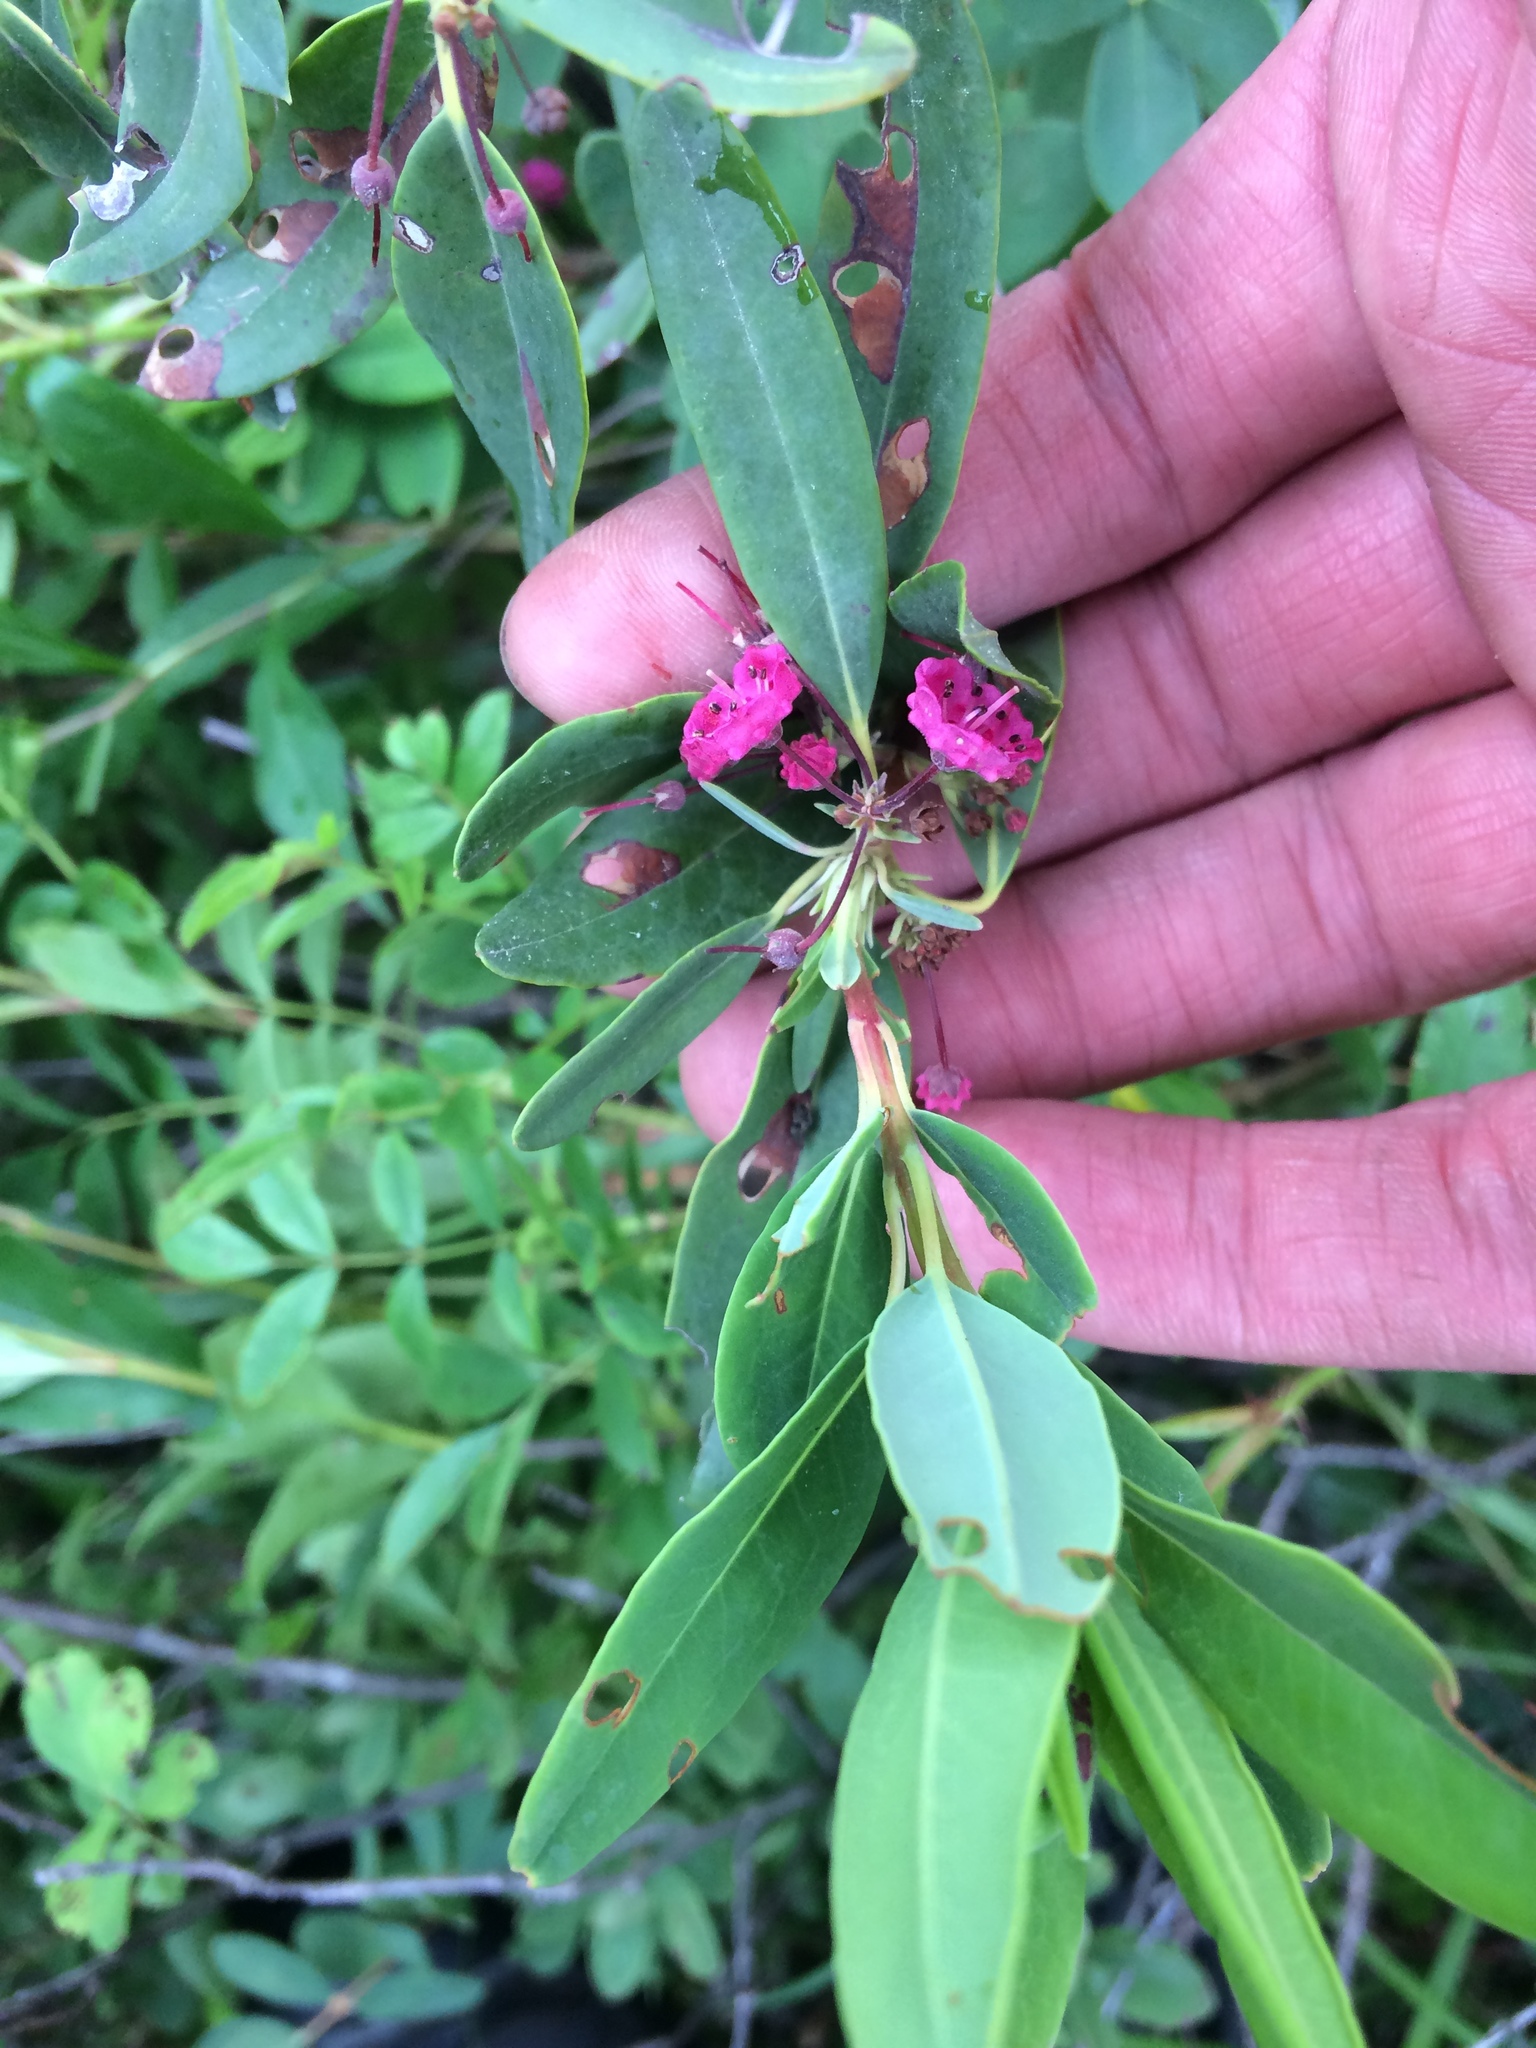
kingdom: Plantae
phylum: Tracheophyta
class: Magnoliopsida
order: Ericales
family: Ericaceae
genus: Kalmia
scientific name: Kalmia angustifolia
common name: Sheep-laurel
